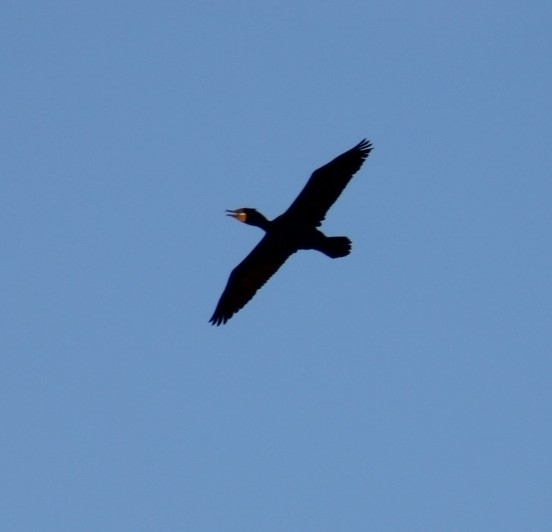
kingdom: Animalia
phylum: Chordata
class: Aves
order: Suliformes
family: Phalacrocoracidae
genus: Phalacrocorax
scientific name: Phalacrocorax auritus
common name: Double-crested cormorant
